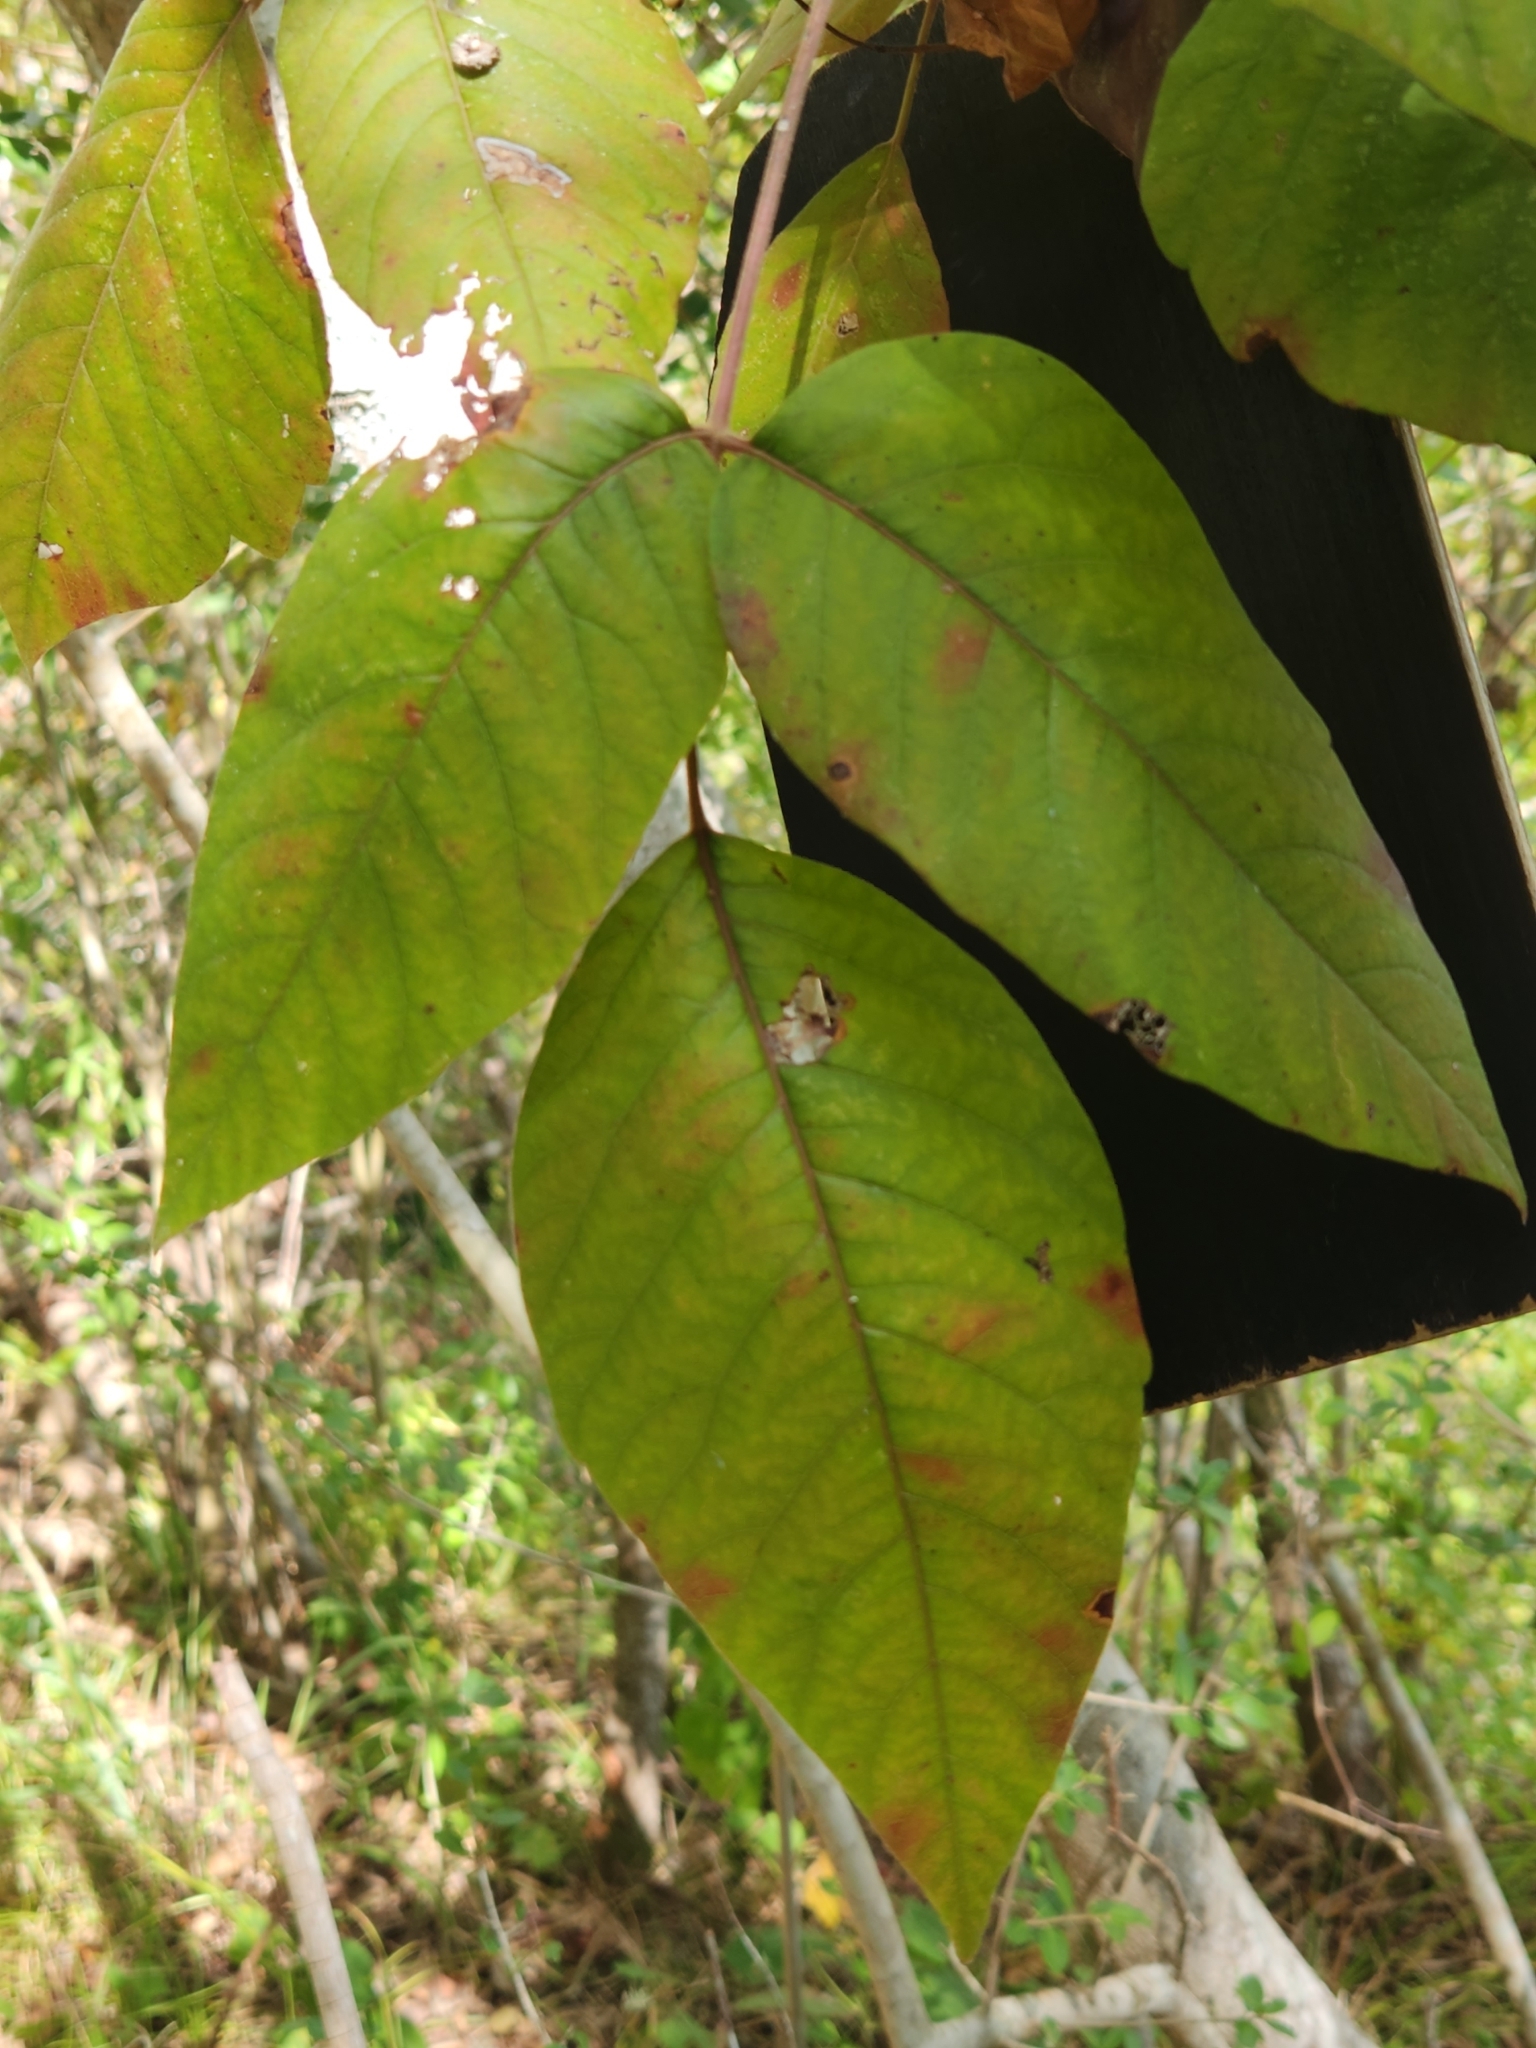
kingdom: Plantae
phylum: Tracheophyta
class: Magnoliopsida
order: Sapindales
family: Anacardiaceae
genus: Toxicodendron
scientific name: Toxicodendron radicans
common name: Poison ivy
